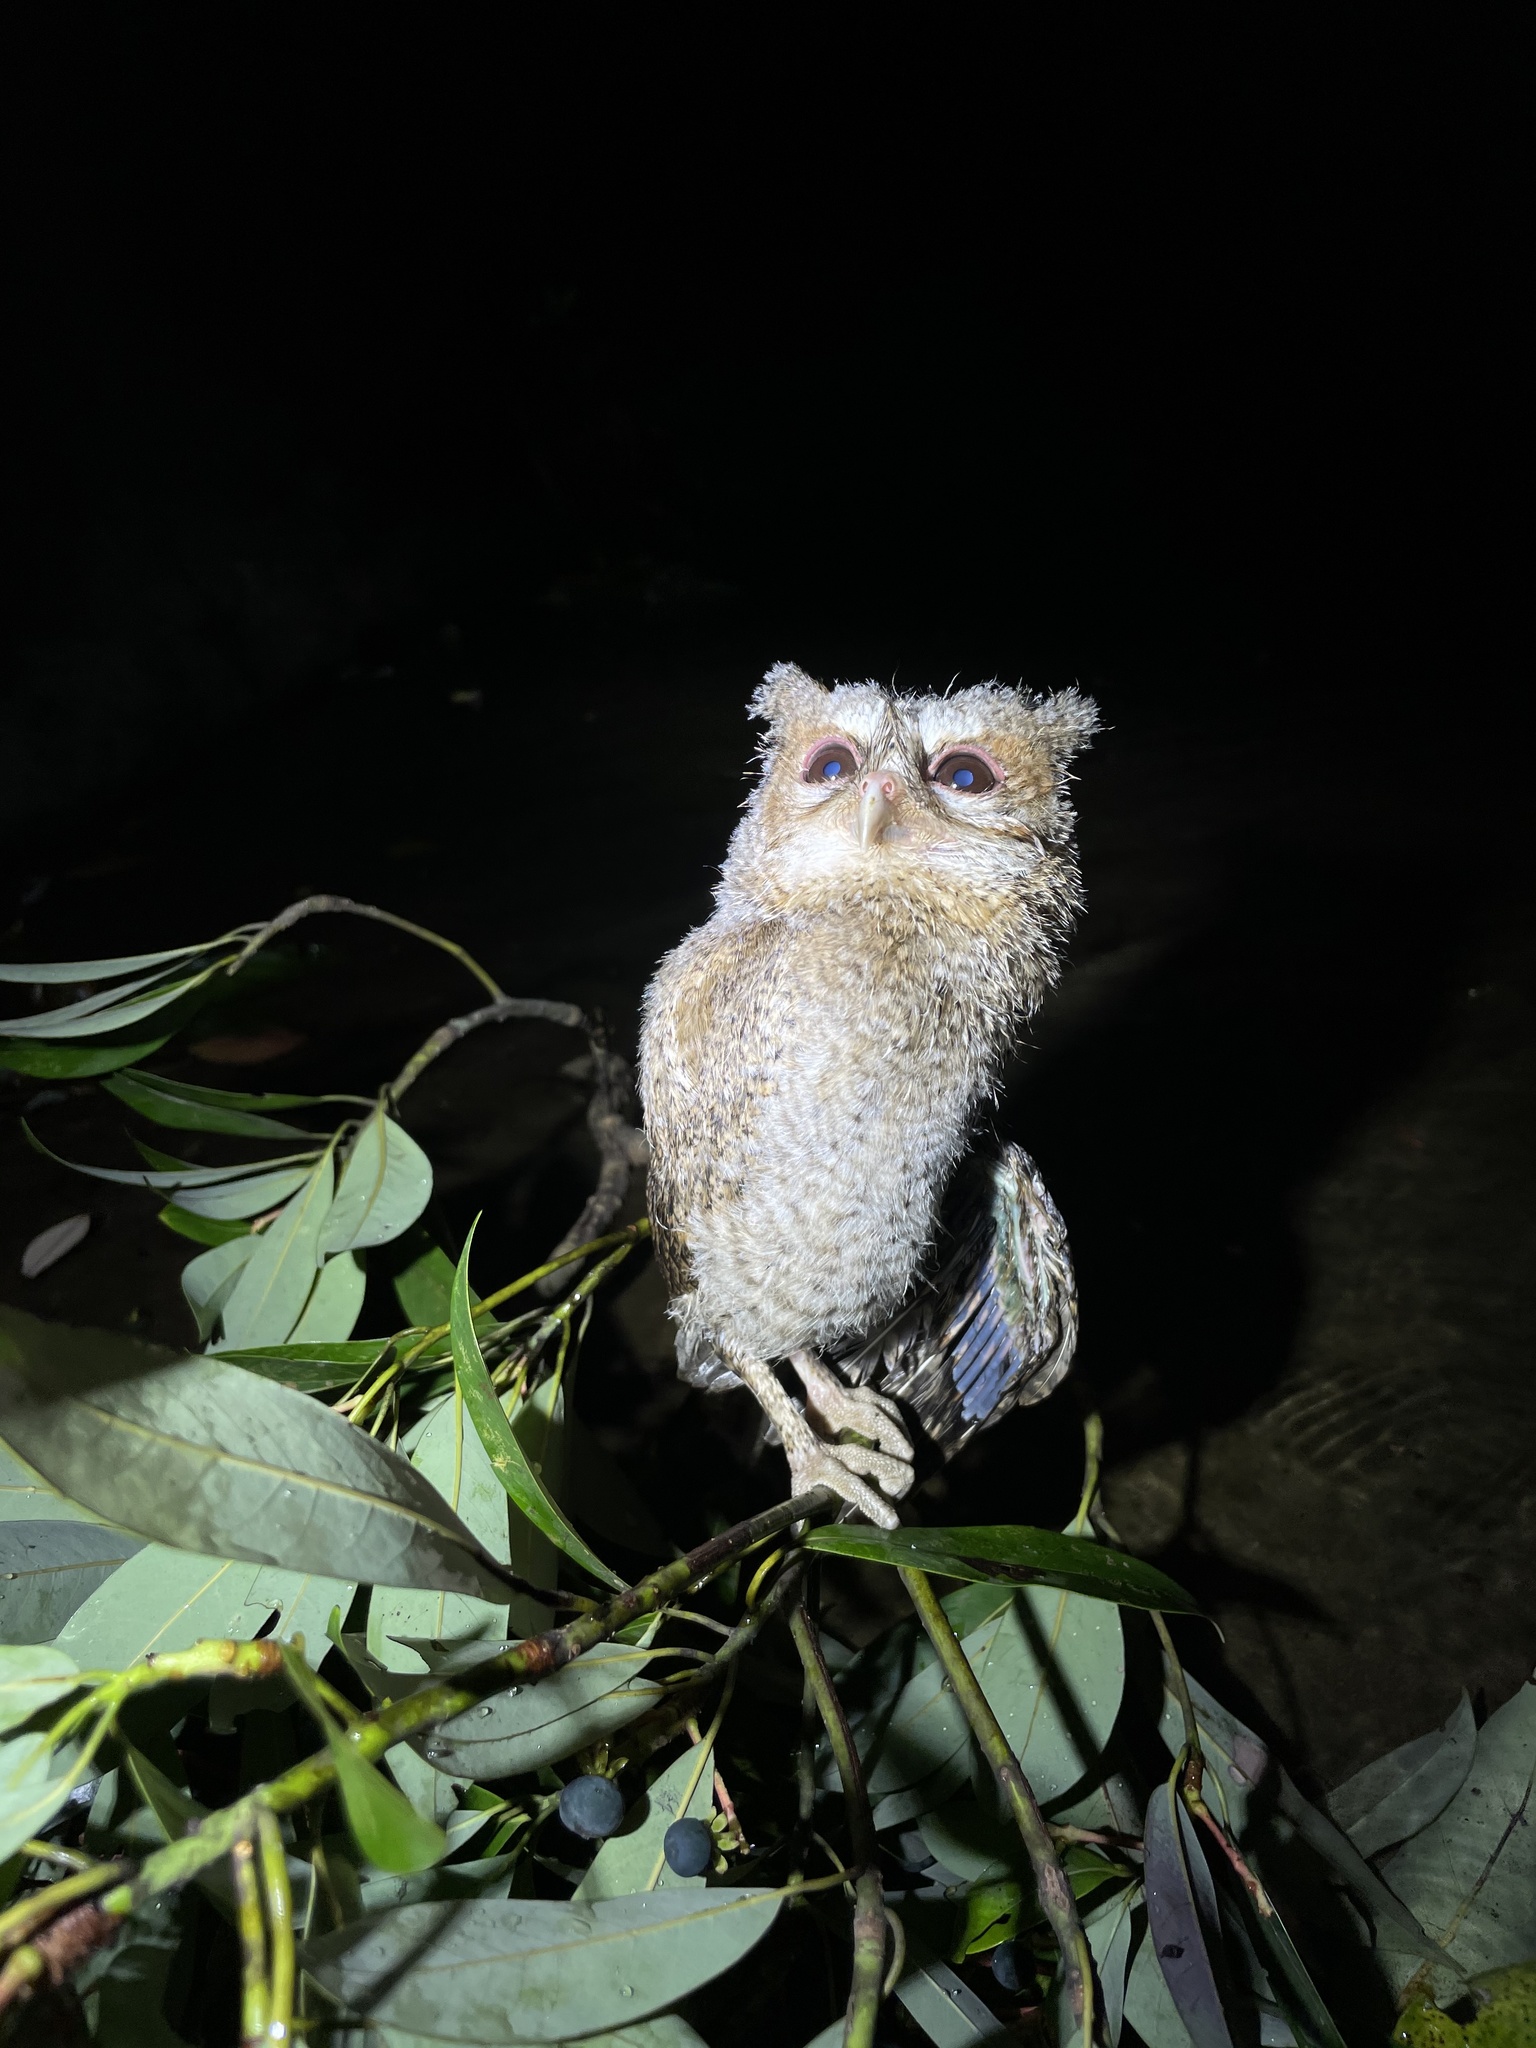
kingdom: Animalia
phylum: Chordata
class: Aves
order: Strigiformes
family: Strigidae
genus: Otus
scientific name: Otus lettia
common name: Collared scops owl
